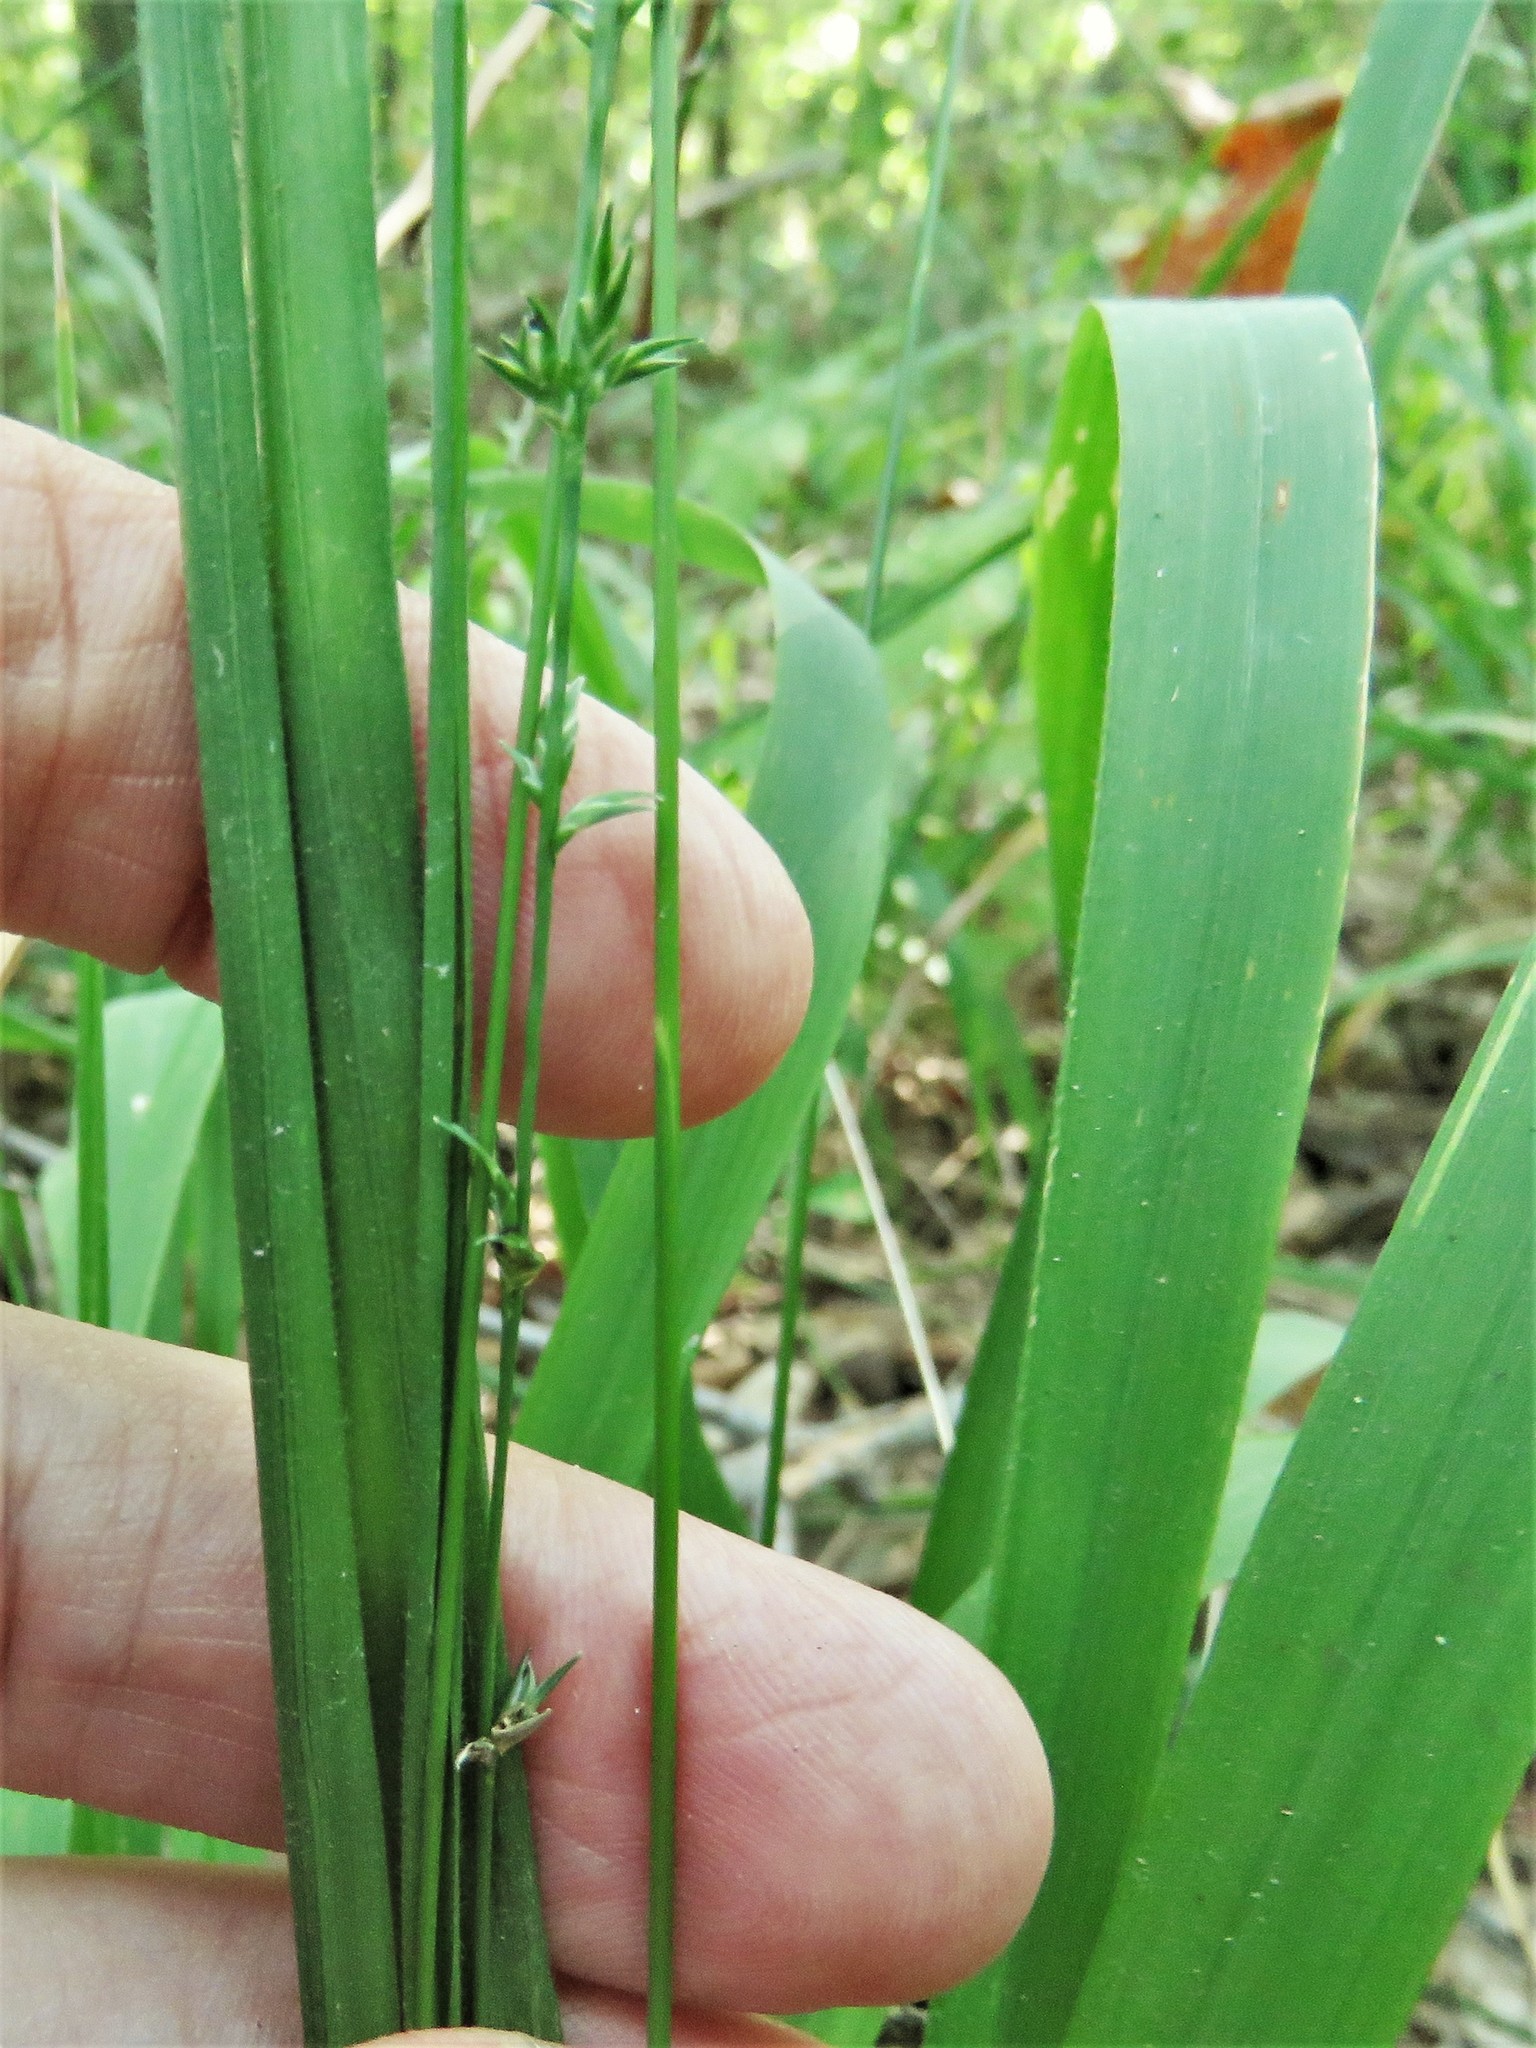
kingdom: Plantae
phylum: Tracheophyta
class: Liliopsida
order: Poales
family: Poaceae
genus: Chasmanthium
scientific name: Chasmanthium laxum
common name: Slender chasmanthium
